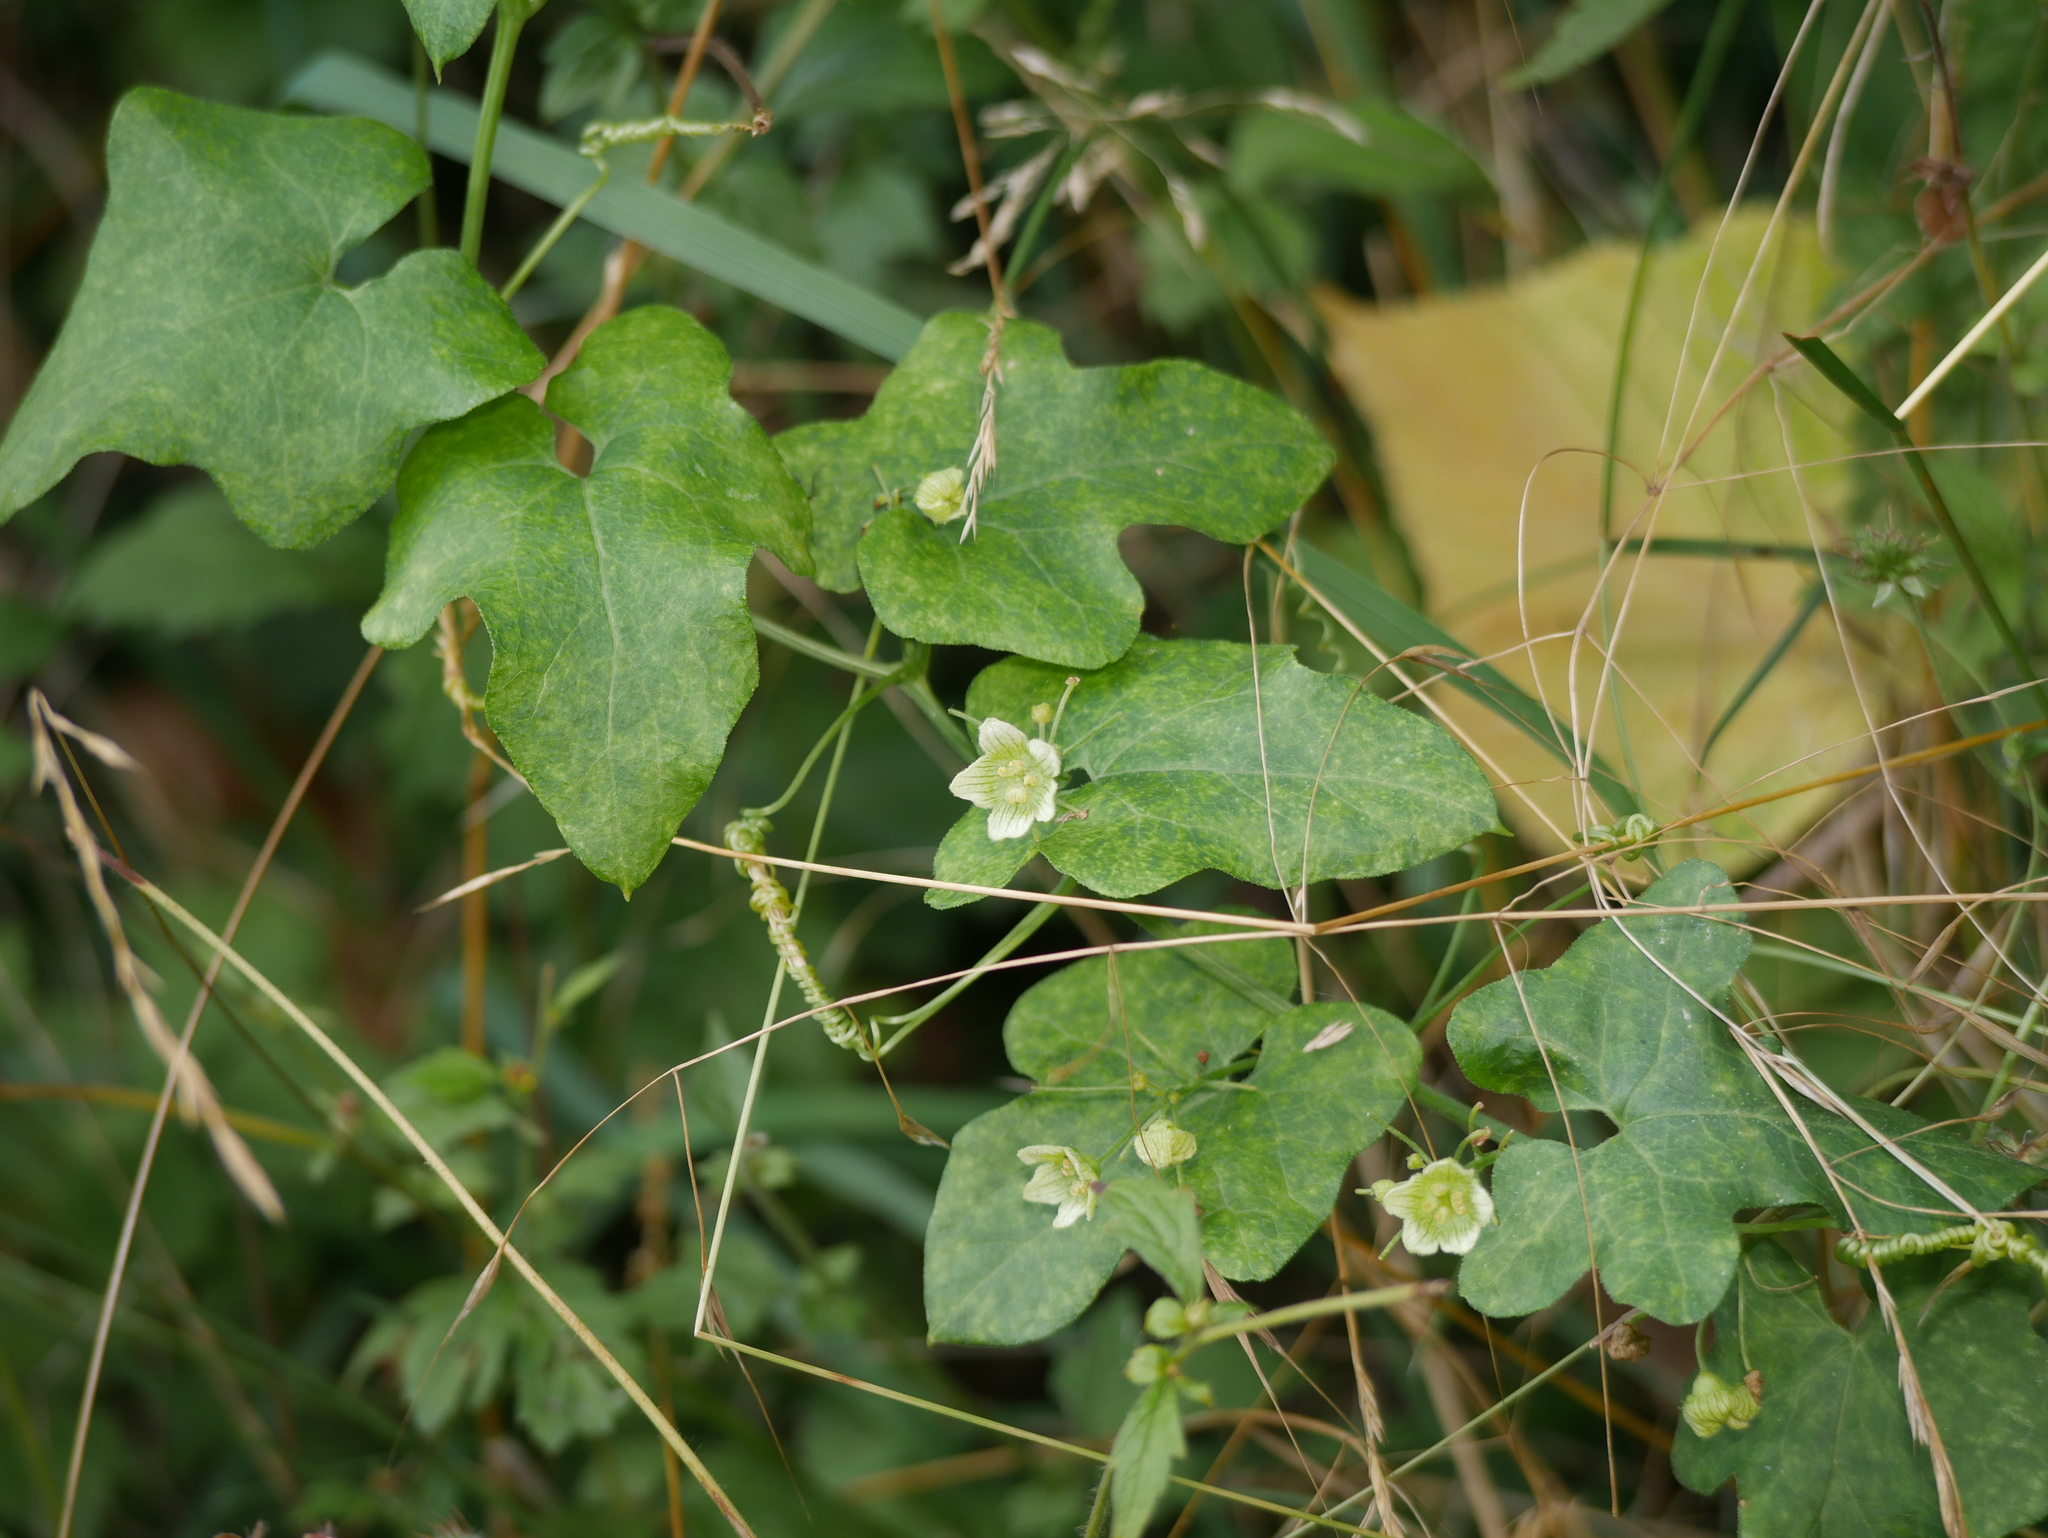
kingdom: Plantae
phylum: Tracheophyta
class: Magnoliopsida
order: Cucurbitales
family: Cucurbitaceae
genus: Bryonia
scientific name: Bryonia cretica
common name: Cretan bryony
